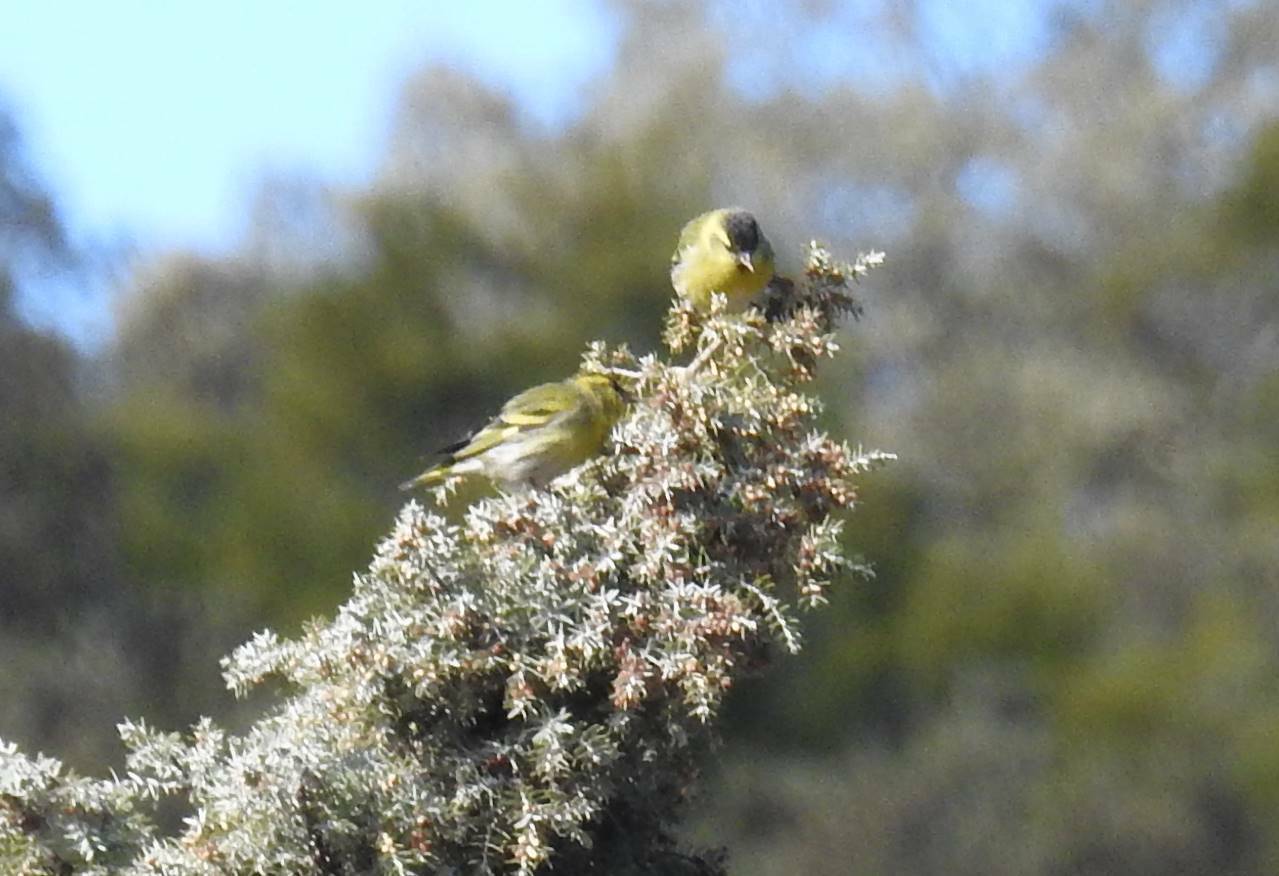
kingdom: Animalia
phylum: Chordata
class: Aves
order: Passeriformes
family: Fringillidae
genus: Spinus
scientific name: Spinus spinus
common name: Eurasian siskin
